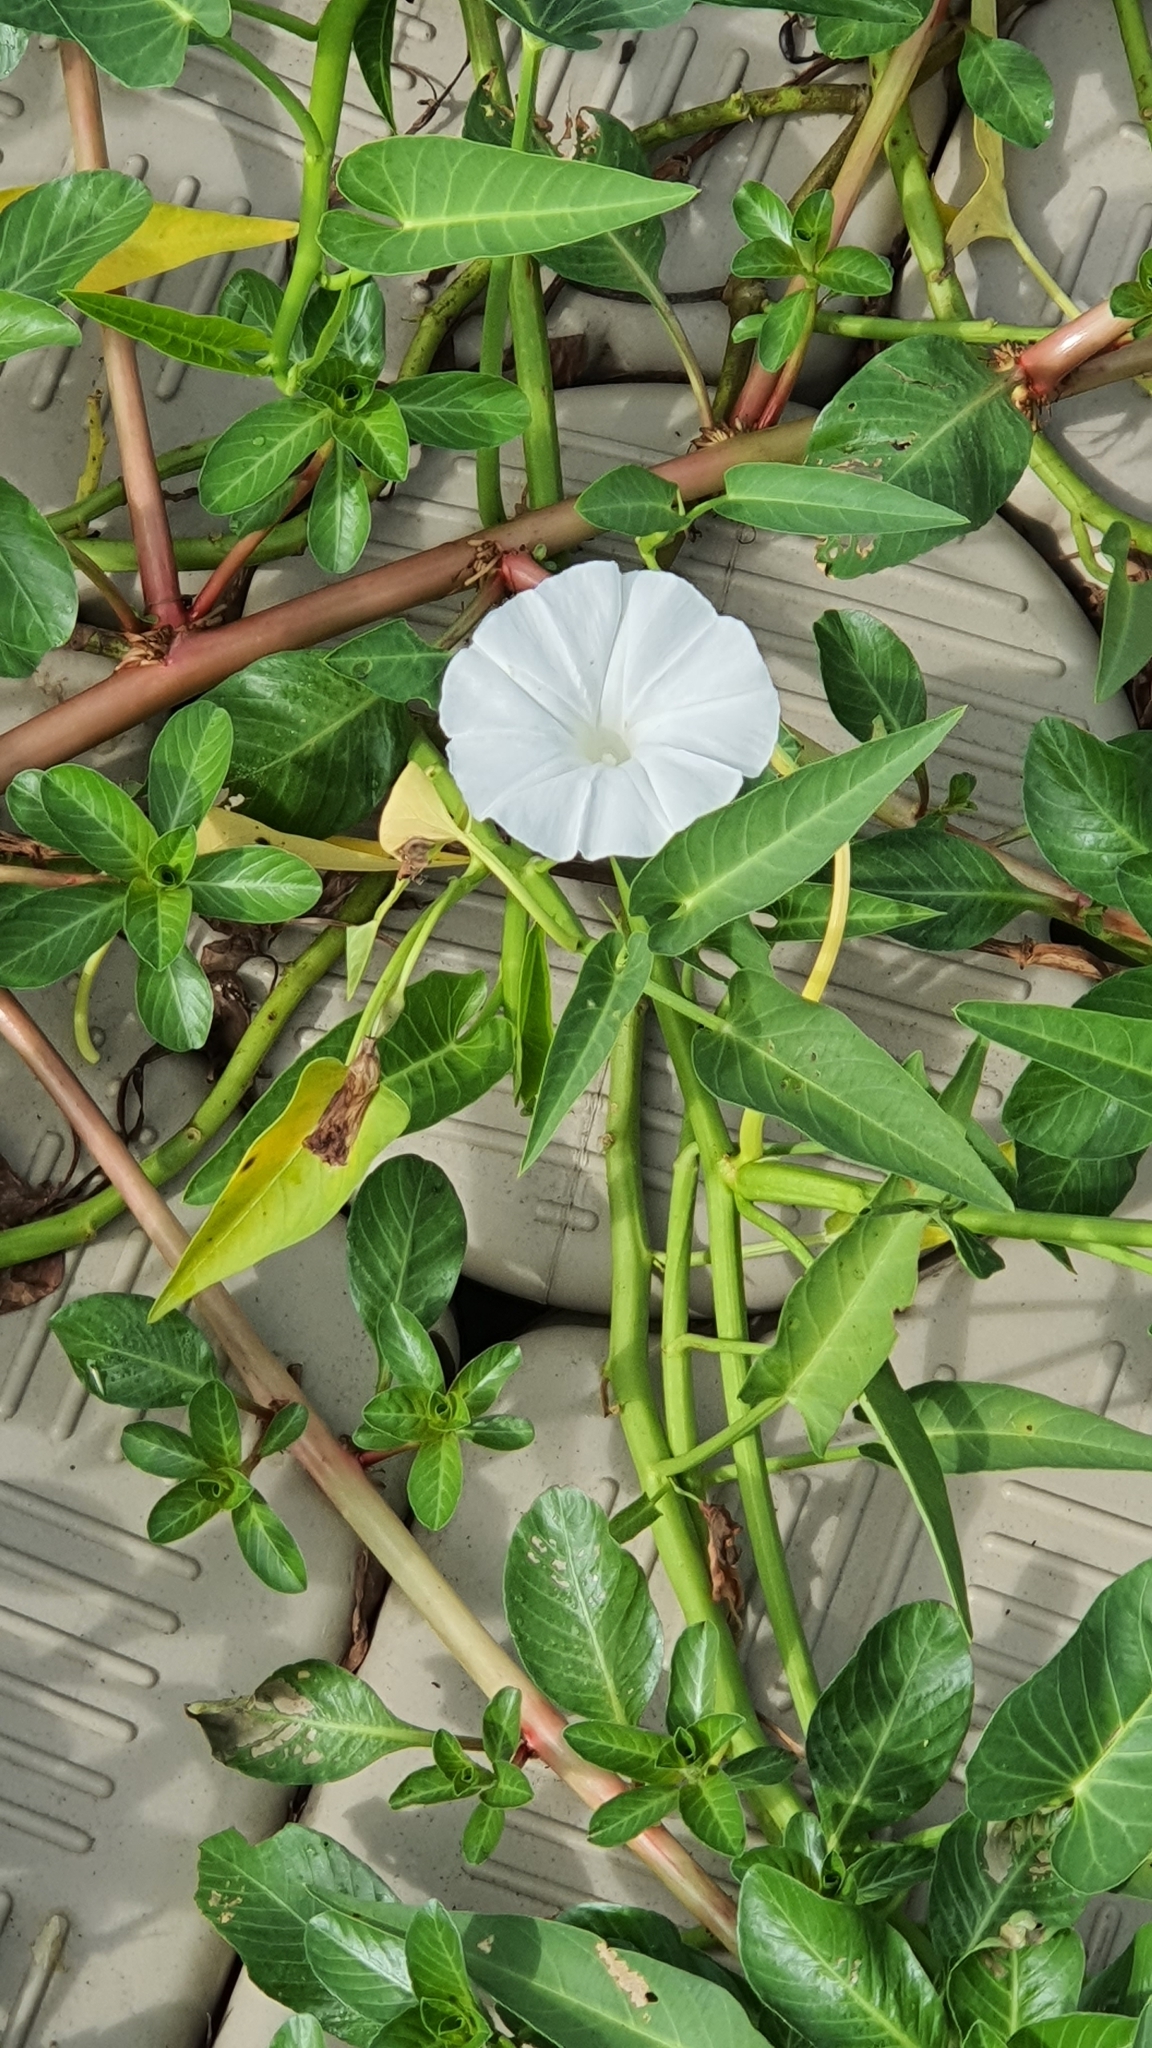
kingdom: Plantae
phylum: Tracheophyta
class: Magnoliopsida
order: Solanales
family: Convolvulaceae
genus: Ipomoea
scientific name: Ipomoea aquatica
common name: Swamp morning-glory
